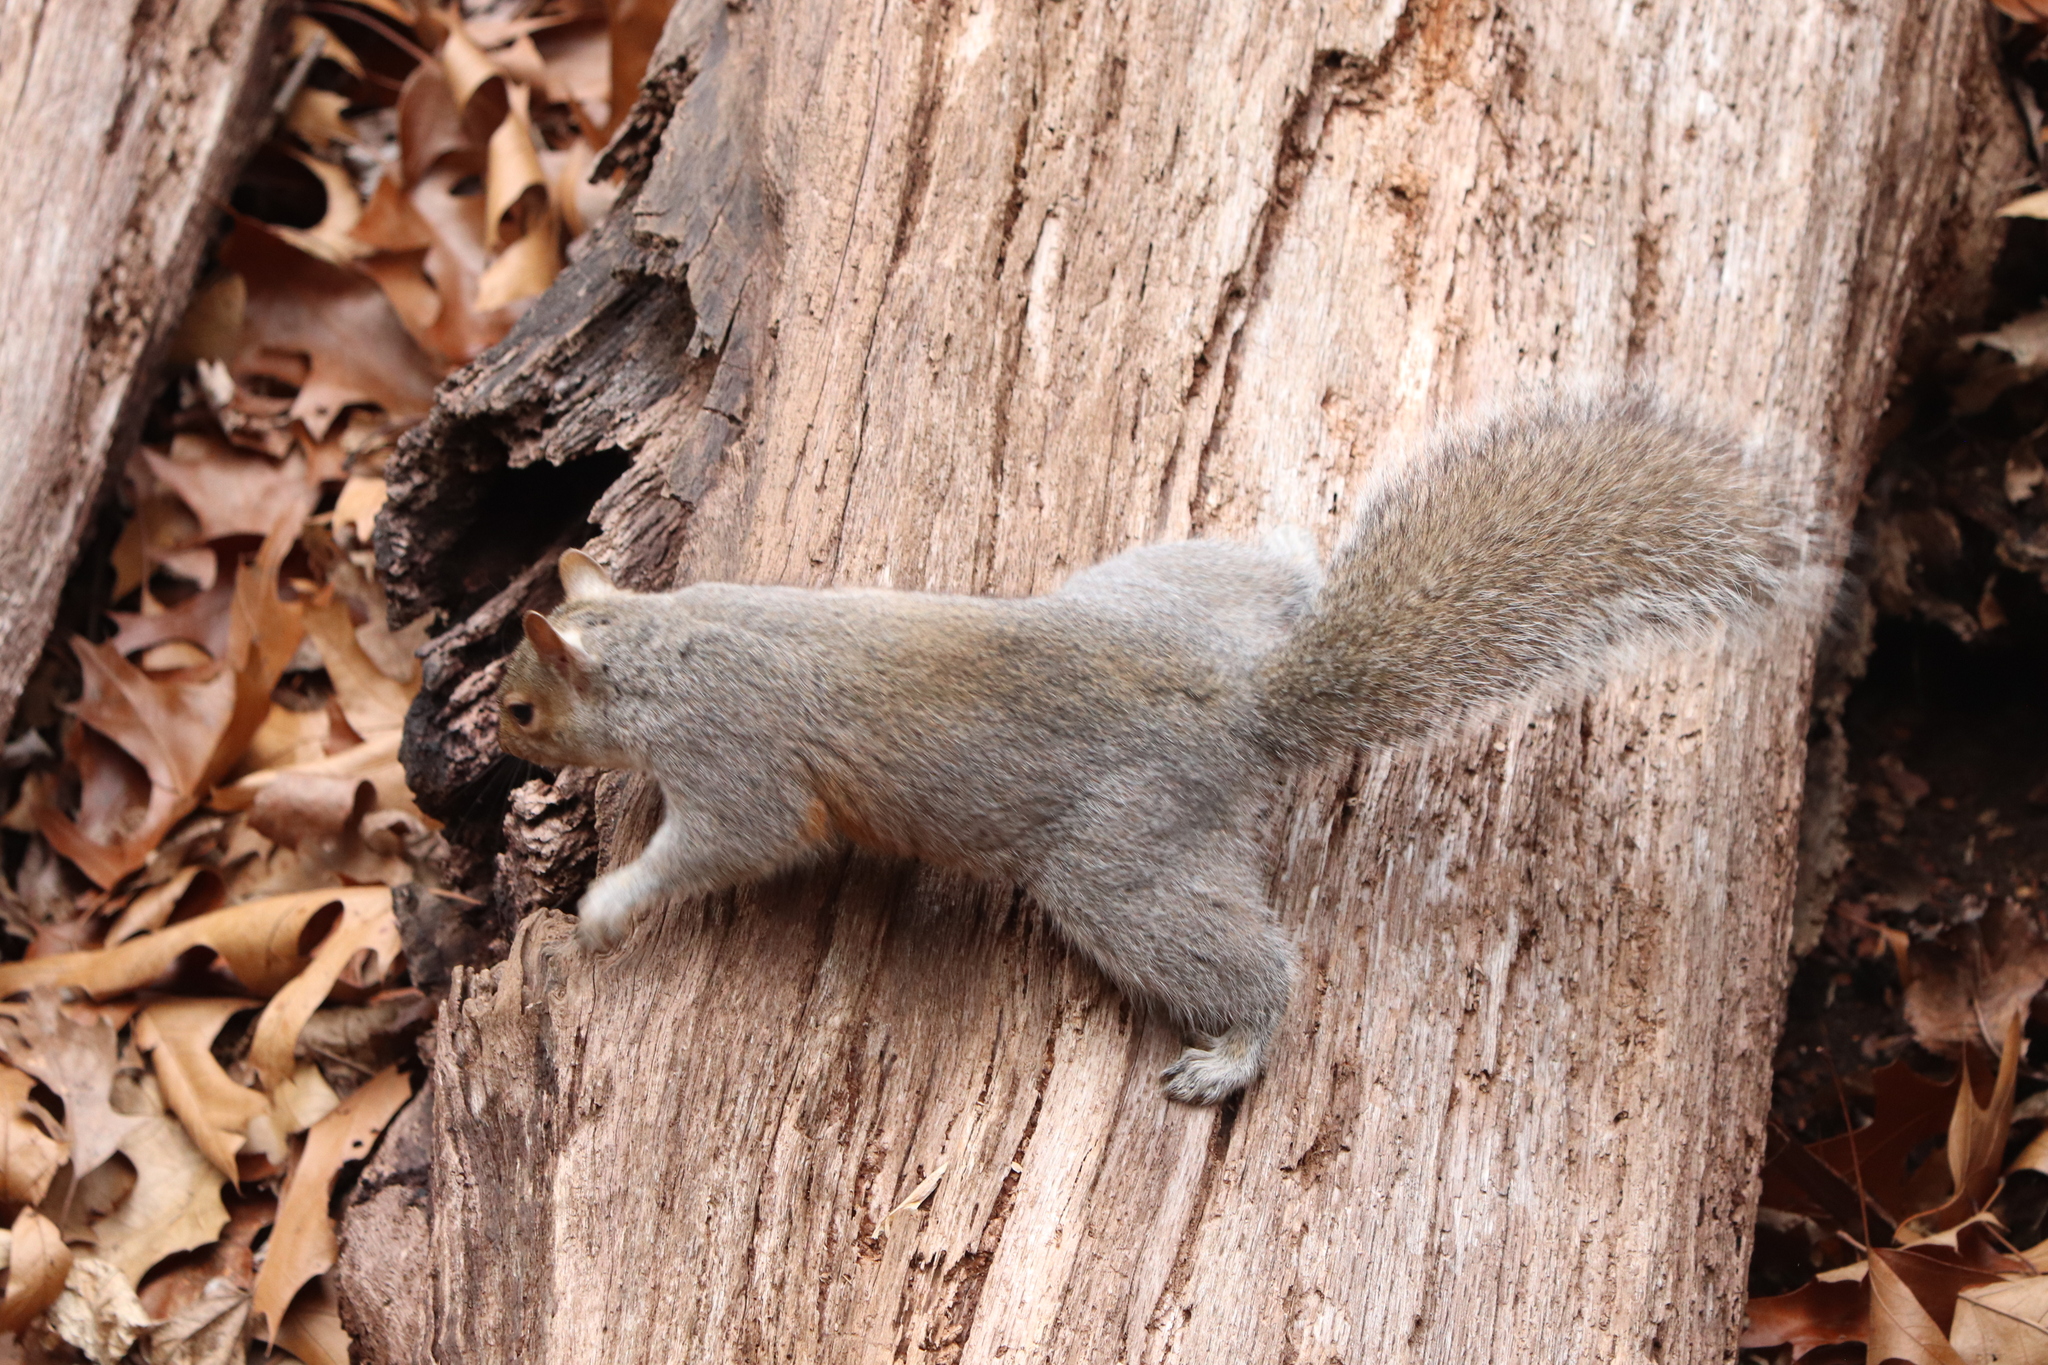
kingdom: Animalia
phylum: Chordata
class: Mammalia
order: Rodentia
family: Sciuridae
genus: Sciurus
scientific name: Sciurus carolinensis
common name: Eastern gray squirrel
